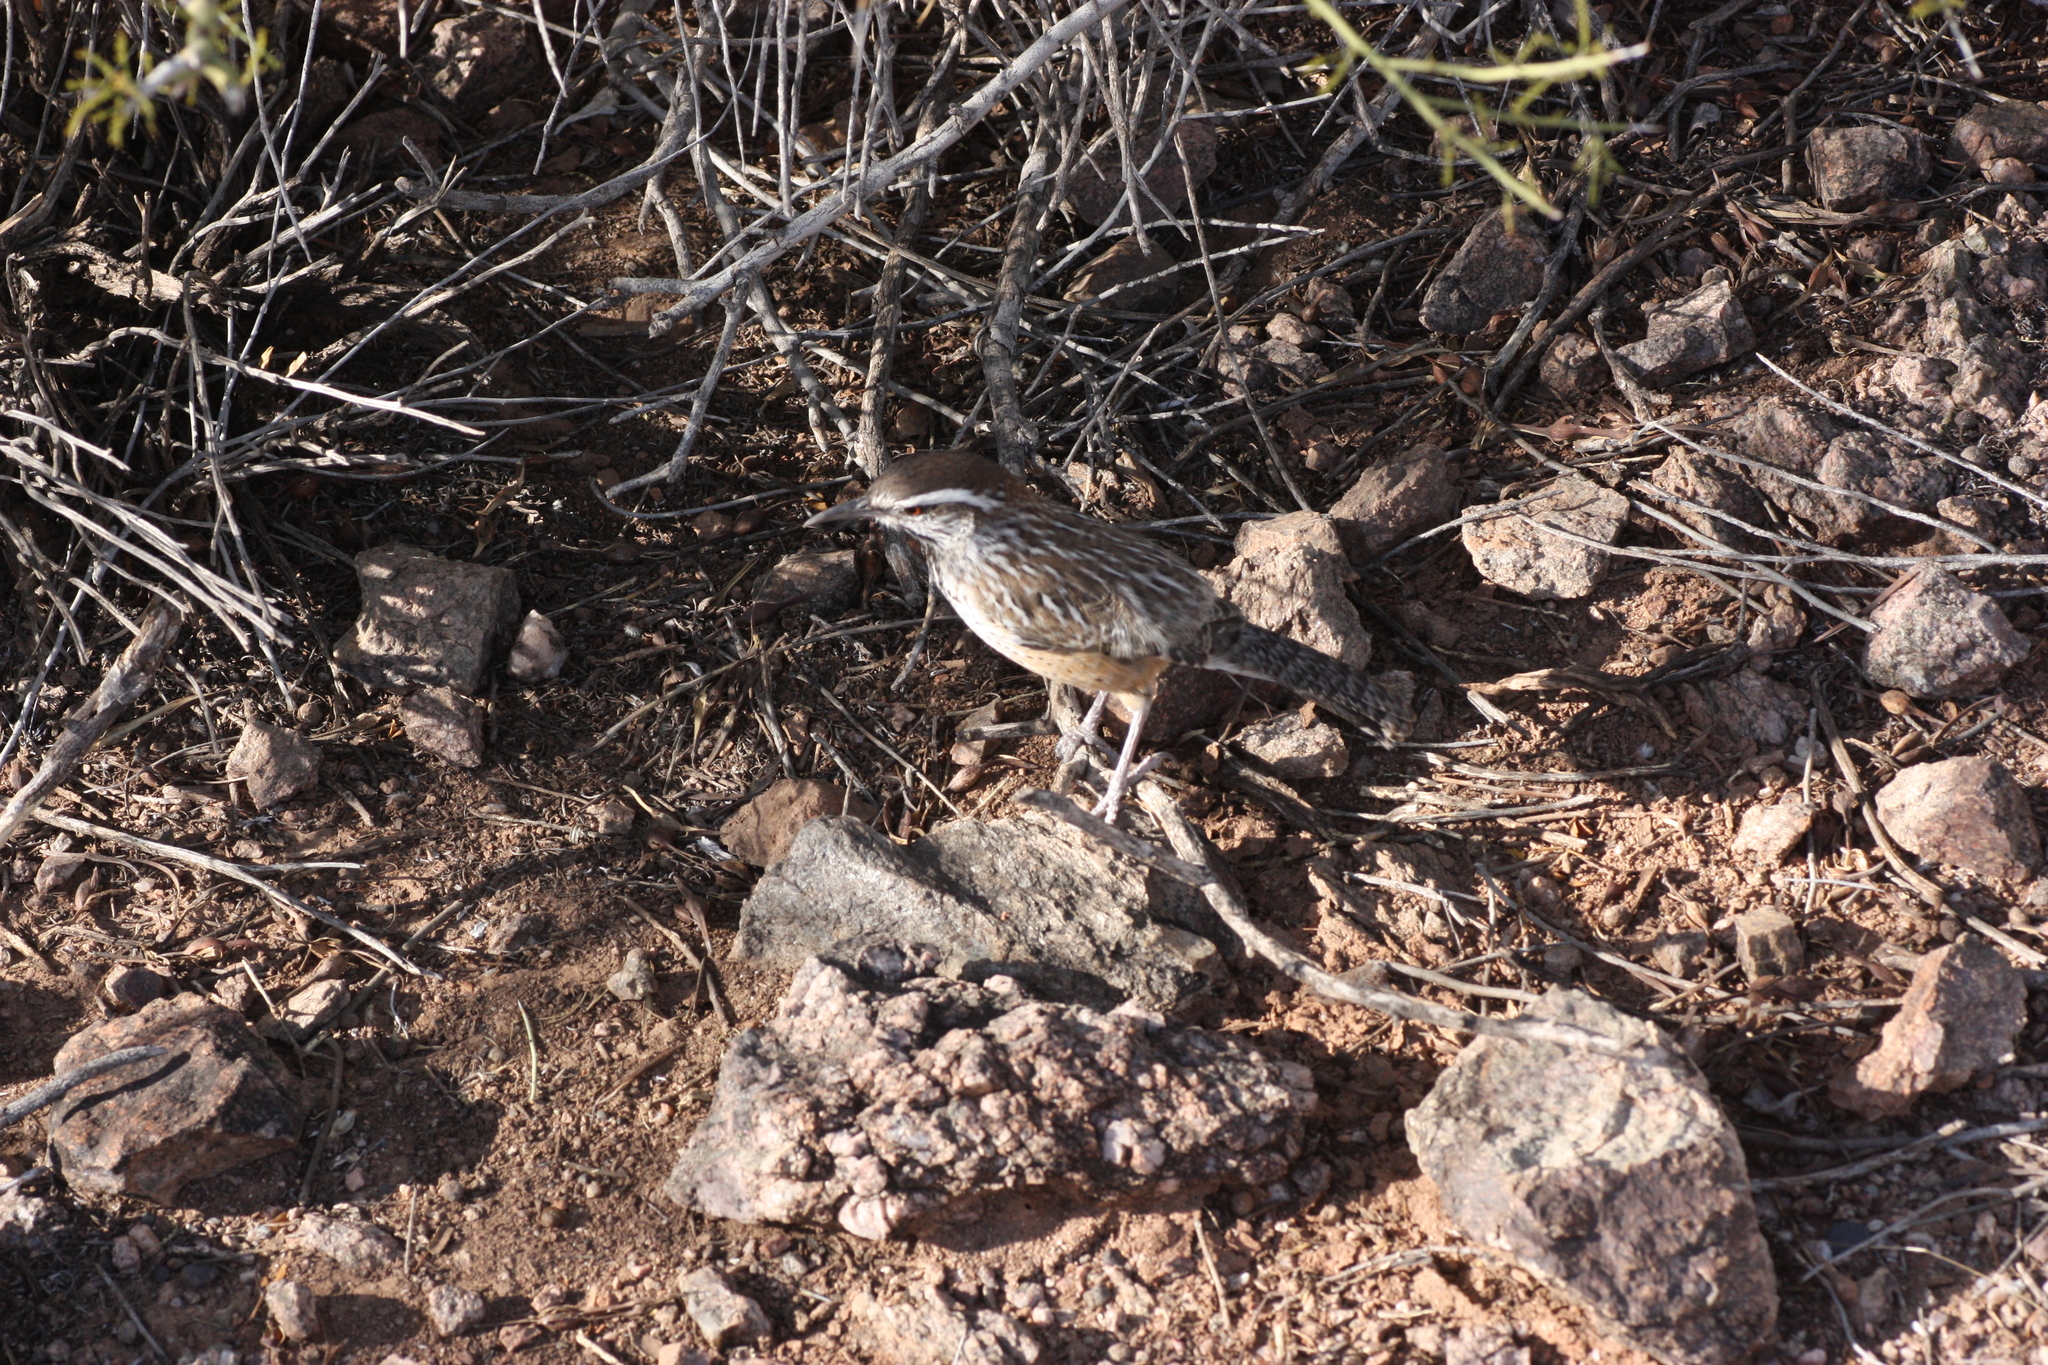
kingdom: Animalia
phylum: Chordata
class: Aves
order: Passeriformes
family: Troglodytidae
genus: Campylorhynchus
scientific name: Campylorhynchus brunneicapillus
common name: Cactus wren
